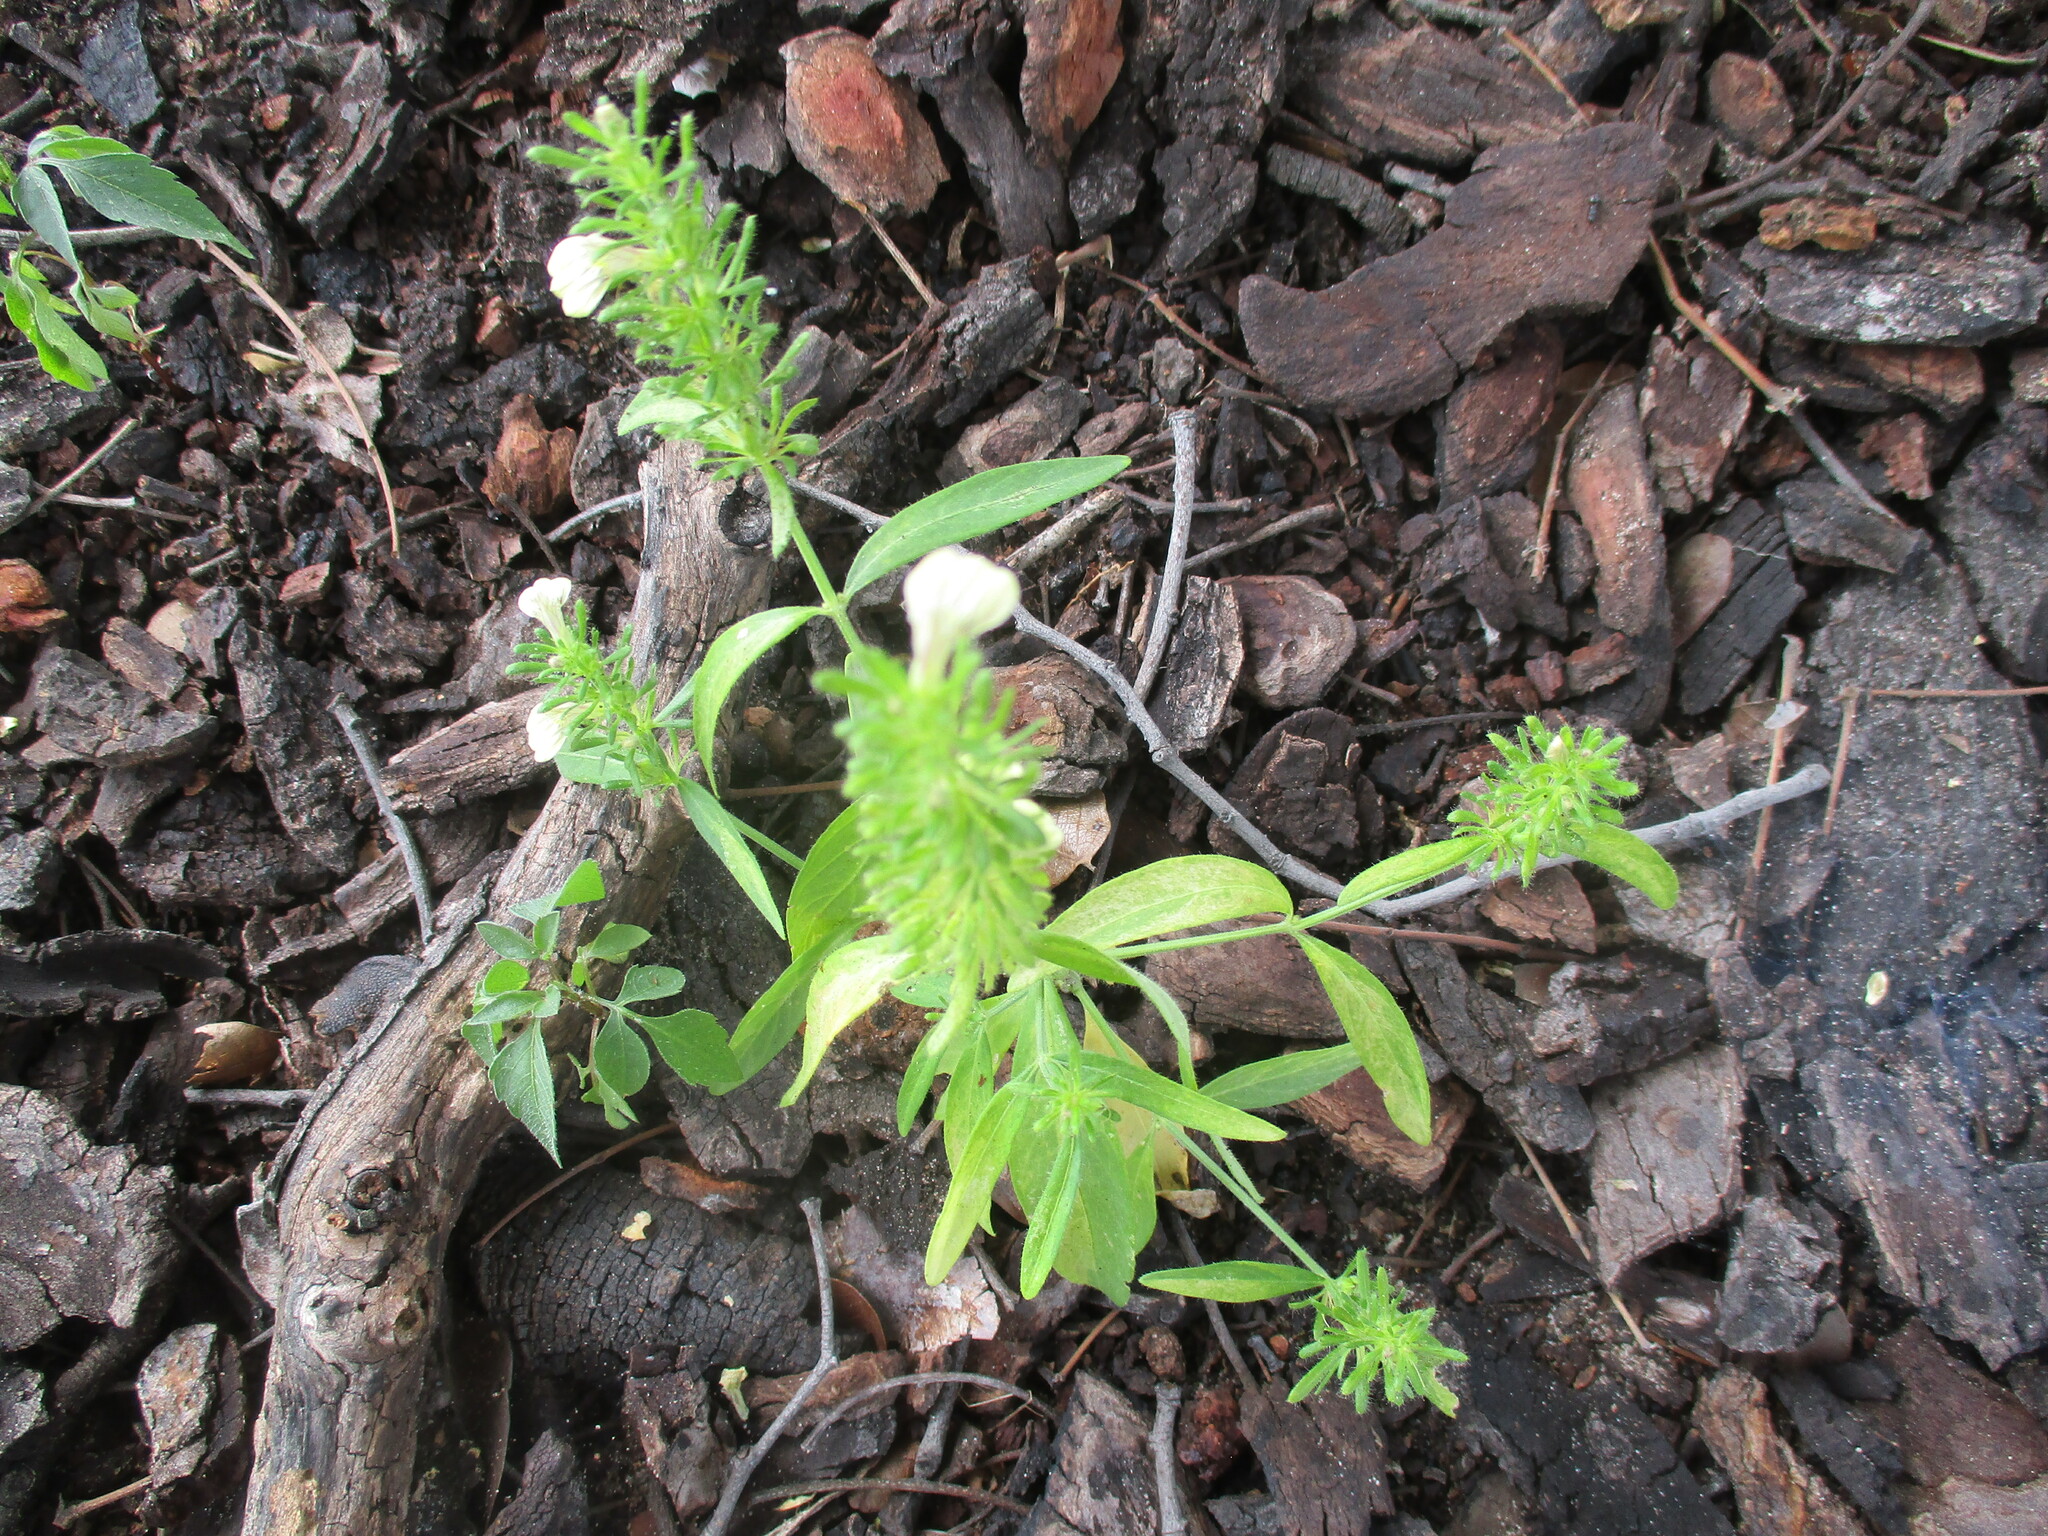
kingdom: Plantae
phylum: Tracheophyta
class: Magnoliopsida
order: Lamiales
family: Acanthaceae
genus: Justicia
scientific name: Justicia kirkiana
